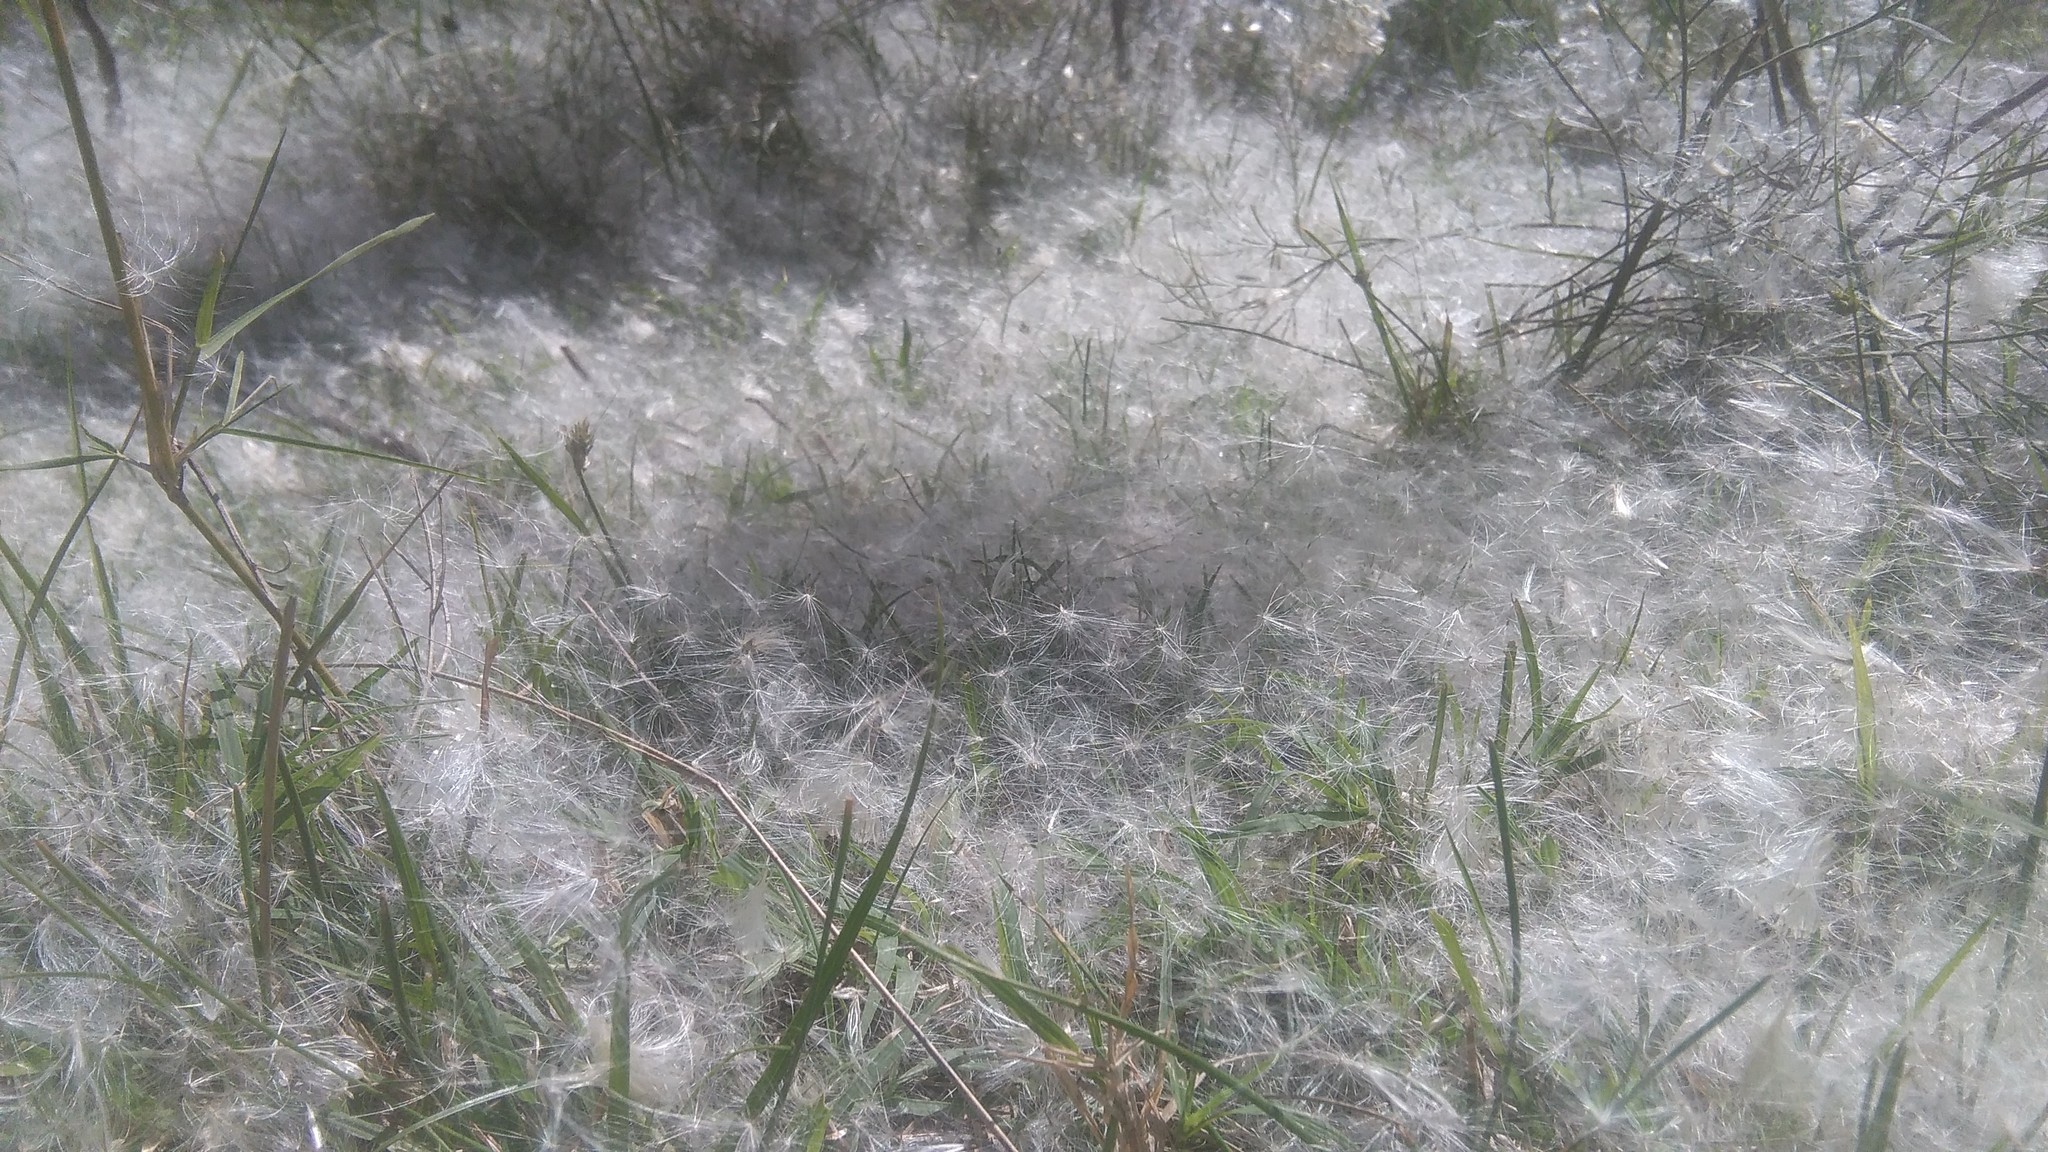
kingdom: Plantae
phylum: Tracheophyta
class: Magnoliopsida
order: Asterales
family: Asteraceae
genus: Baccharis
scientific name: Baccharis notosergila
